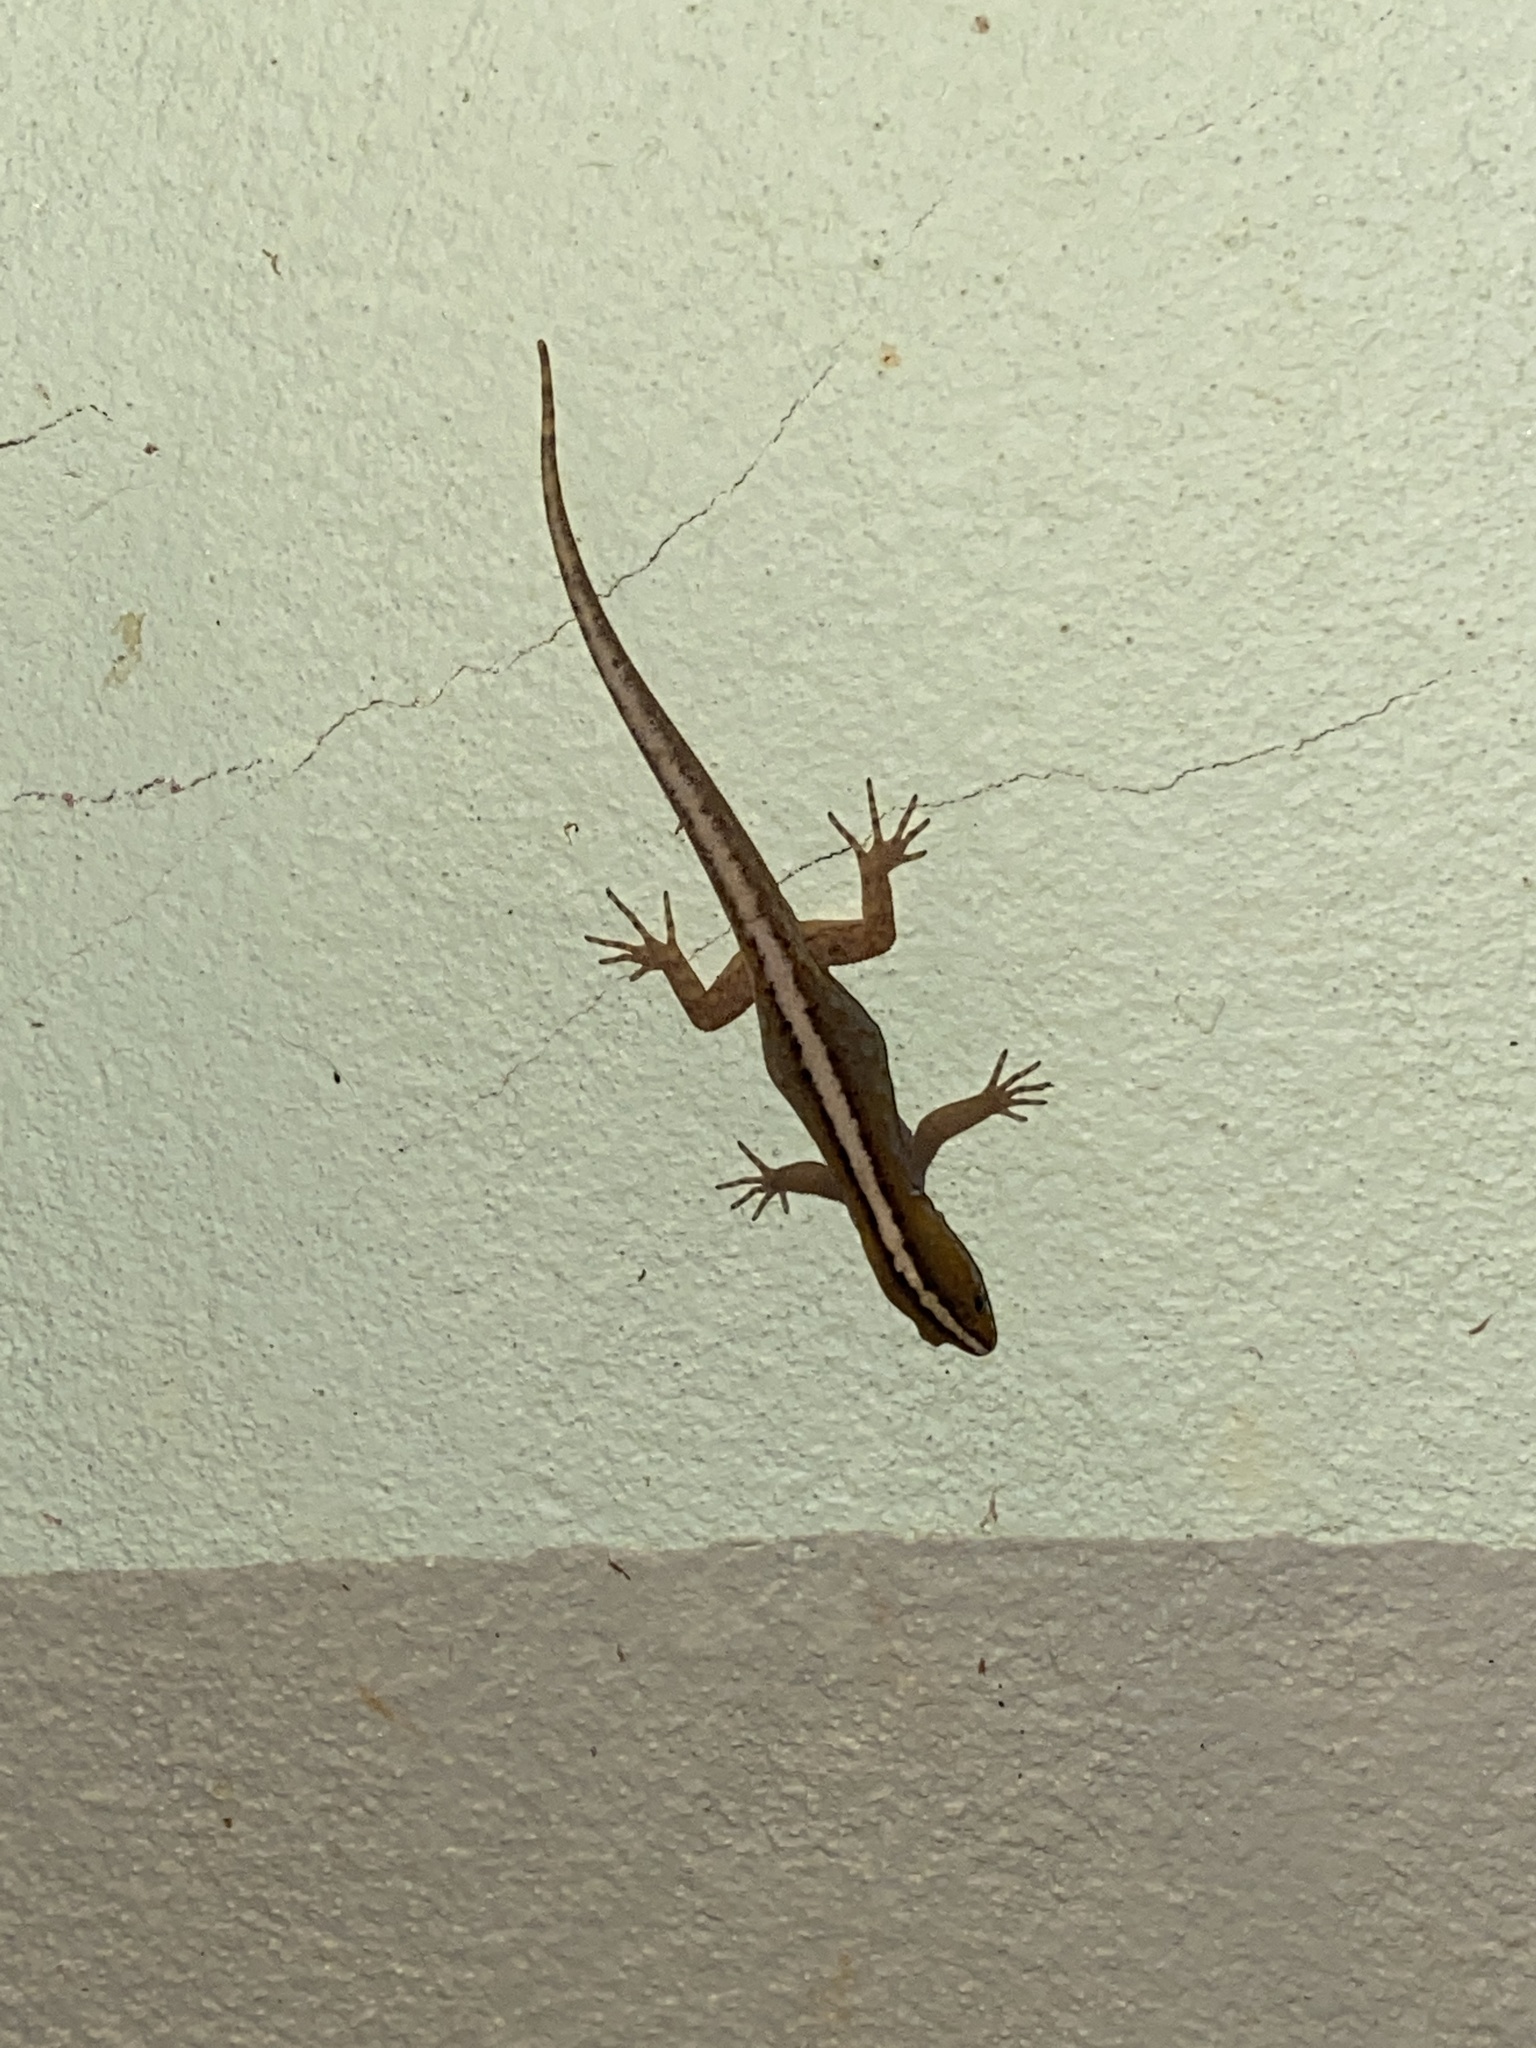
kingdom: Animalia
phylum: Chordata
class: Squamata
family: Sphaerodactylidae
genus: Gonatodes
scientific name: Gonatodes vittatus
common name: Wiegmann's striped gecko
